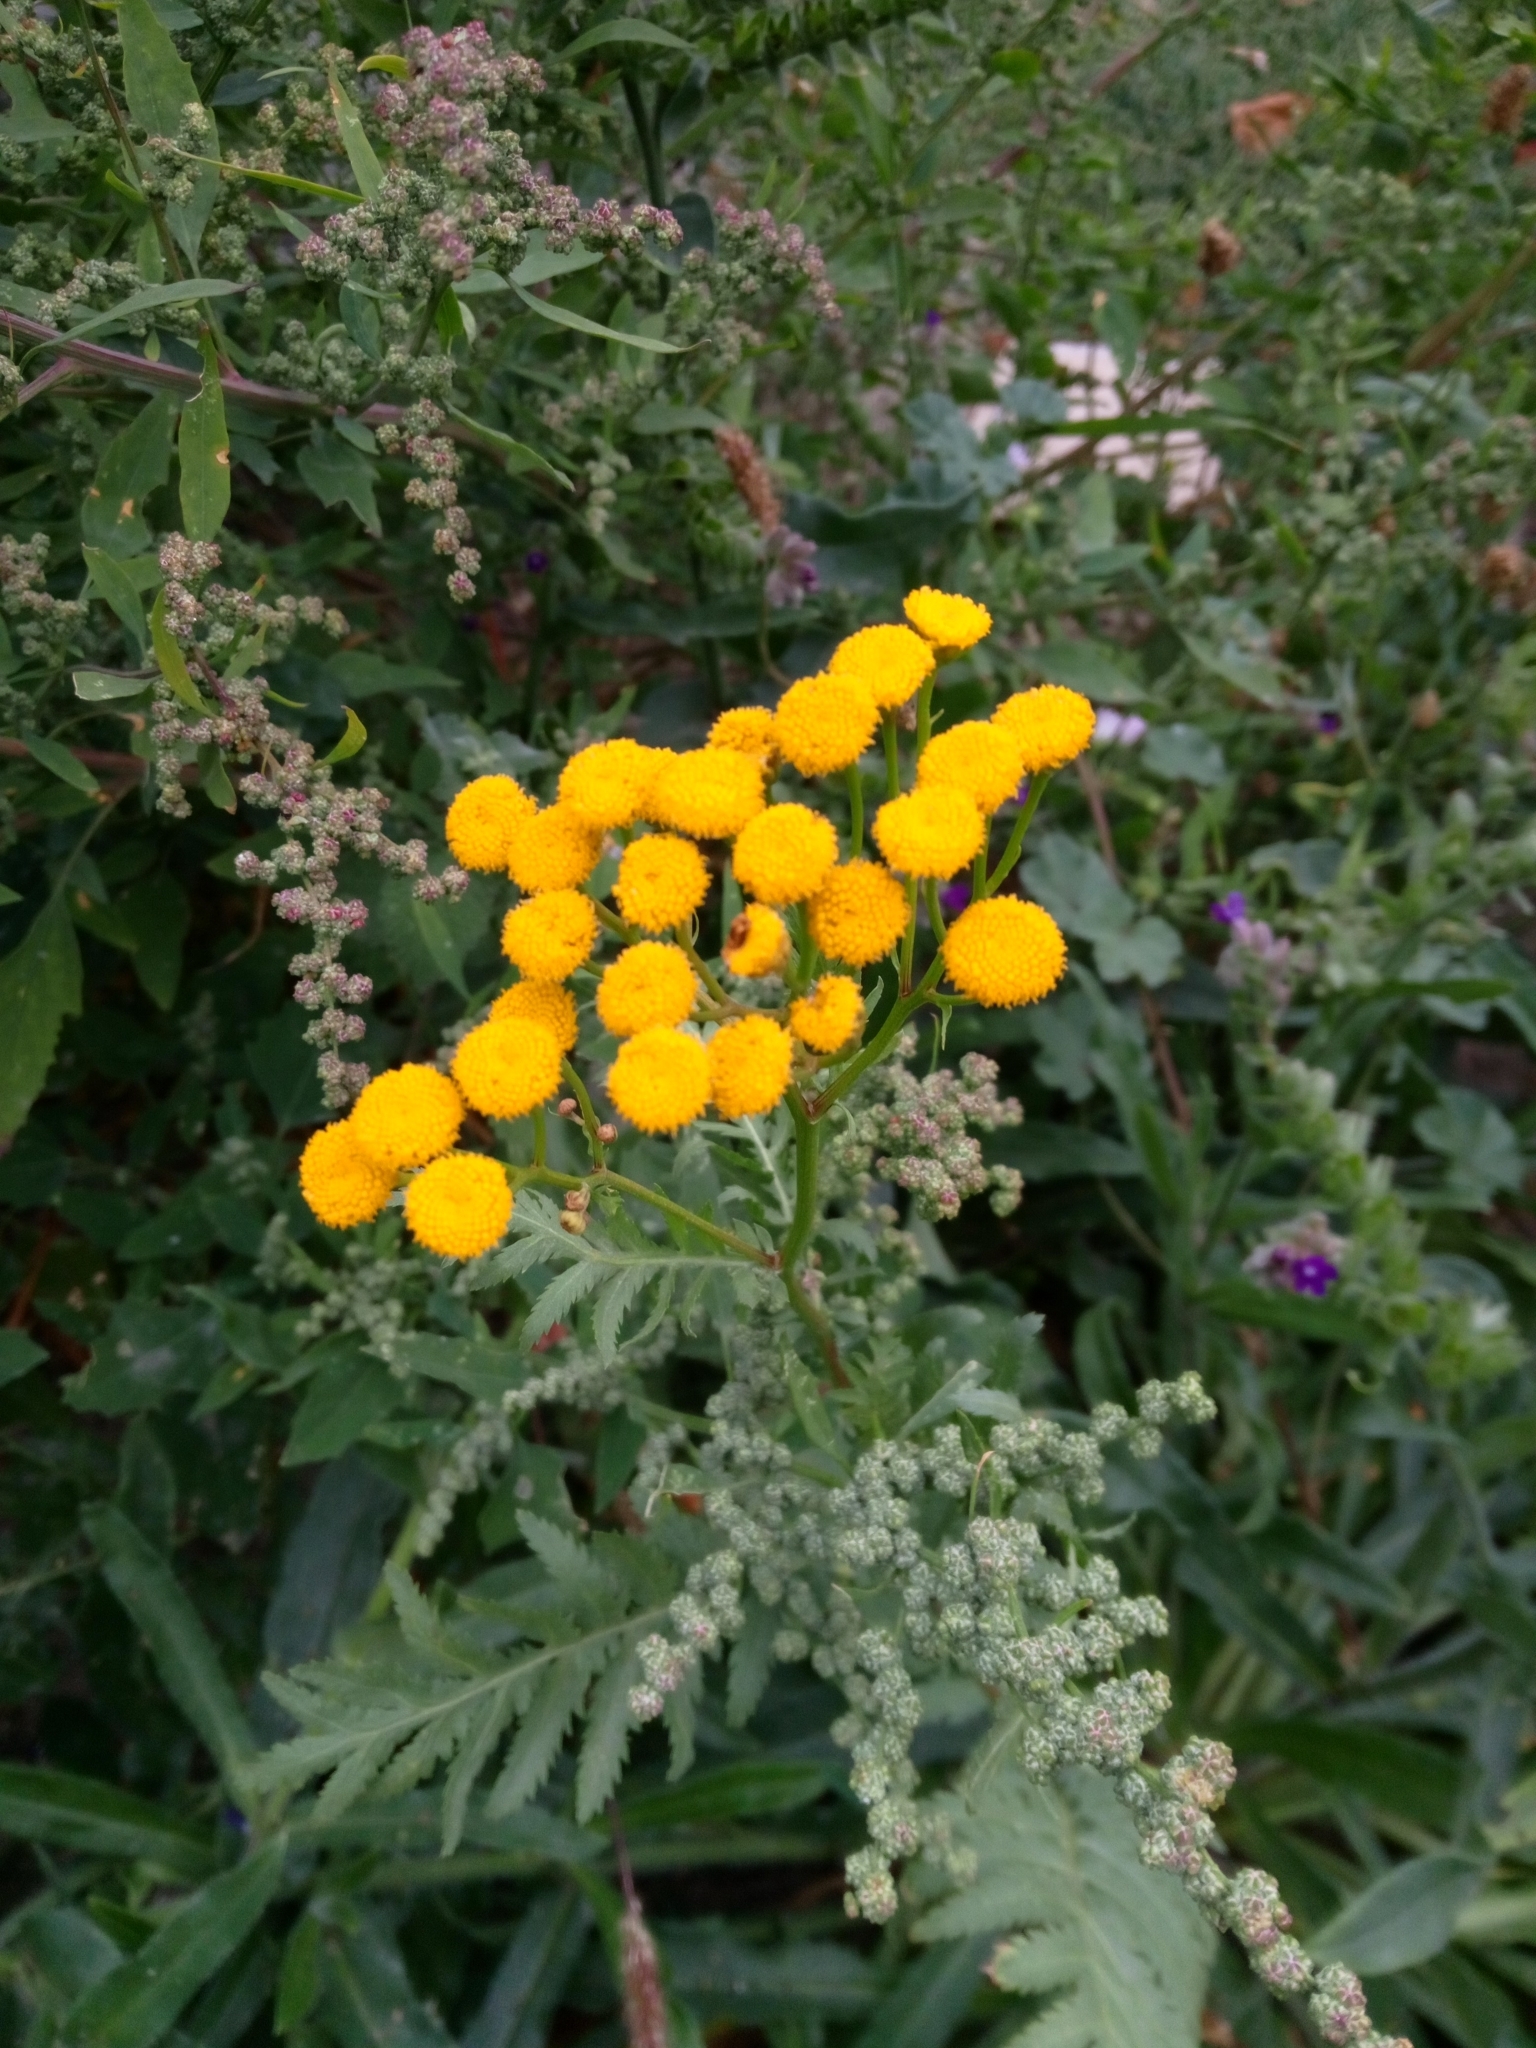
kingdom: Plantae
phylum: Tracheophyta
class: Magnoliopsida
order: Asterales
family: Asteraceae
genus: Tanacetum
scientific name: Tanacetum vulgare
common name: Common tansy
